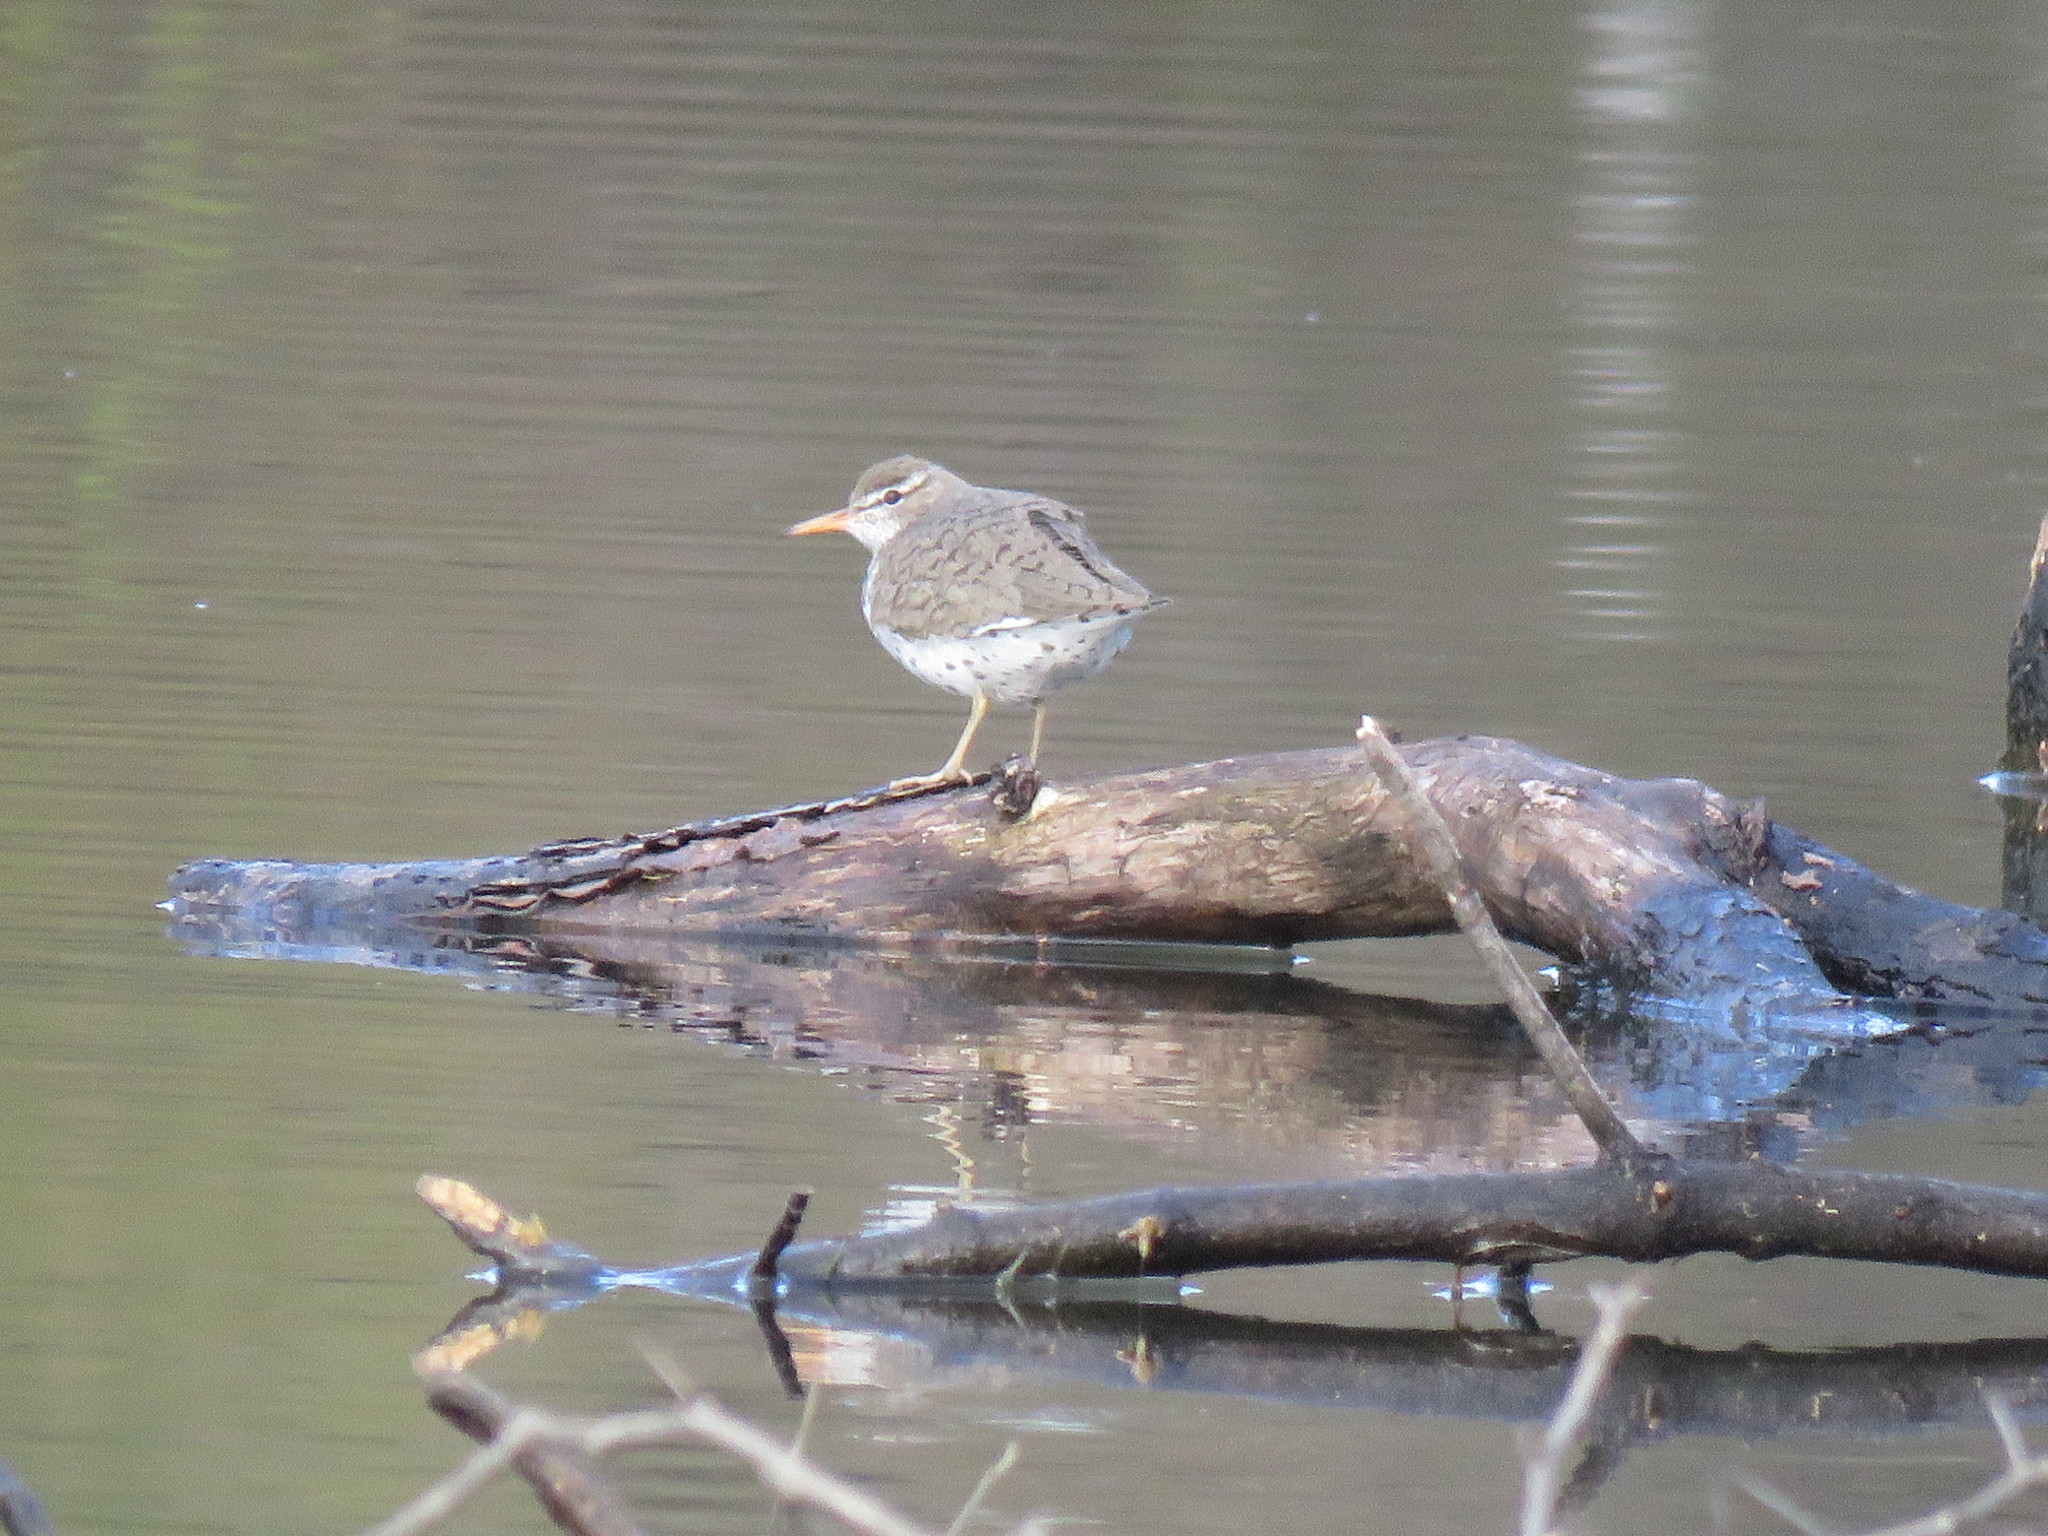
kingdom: Animalia
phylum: Chordata
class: Aves
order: Charadriiformes
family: Scolopacidae
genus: Actitis
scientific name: Actitis macularius
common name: Spotted sandpiper
